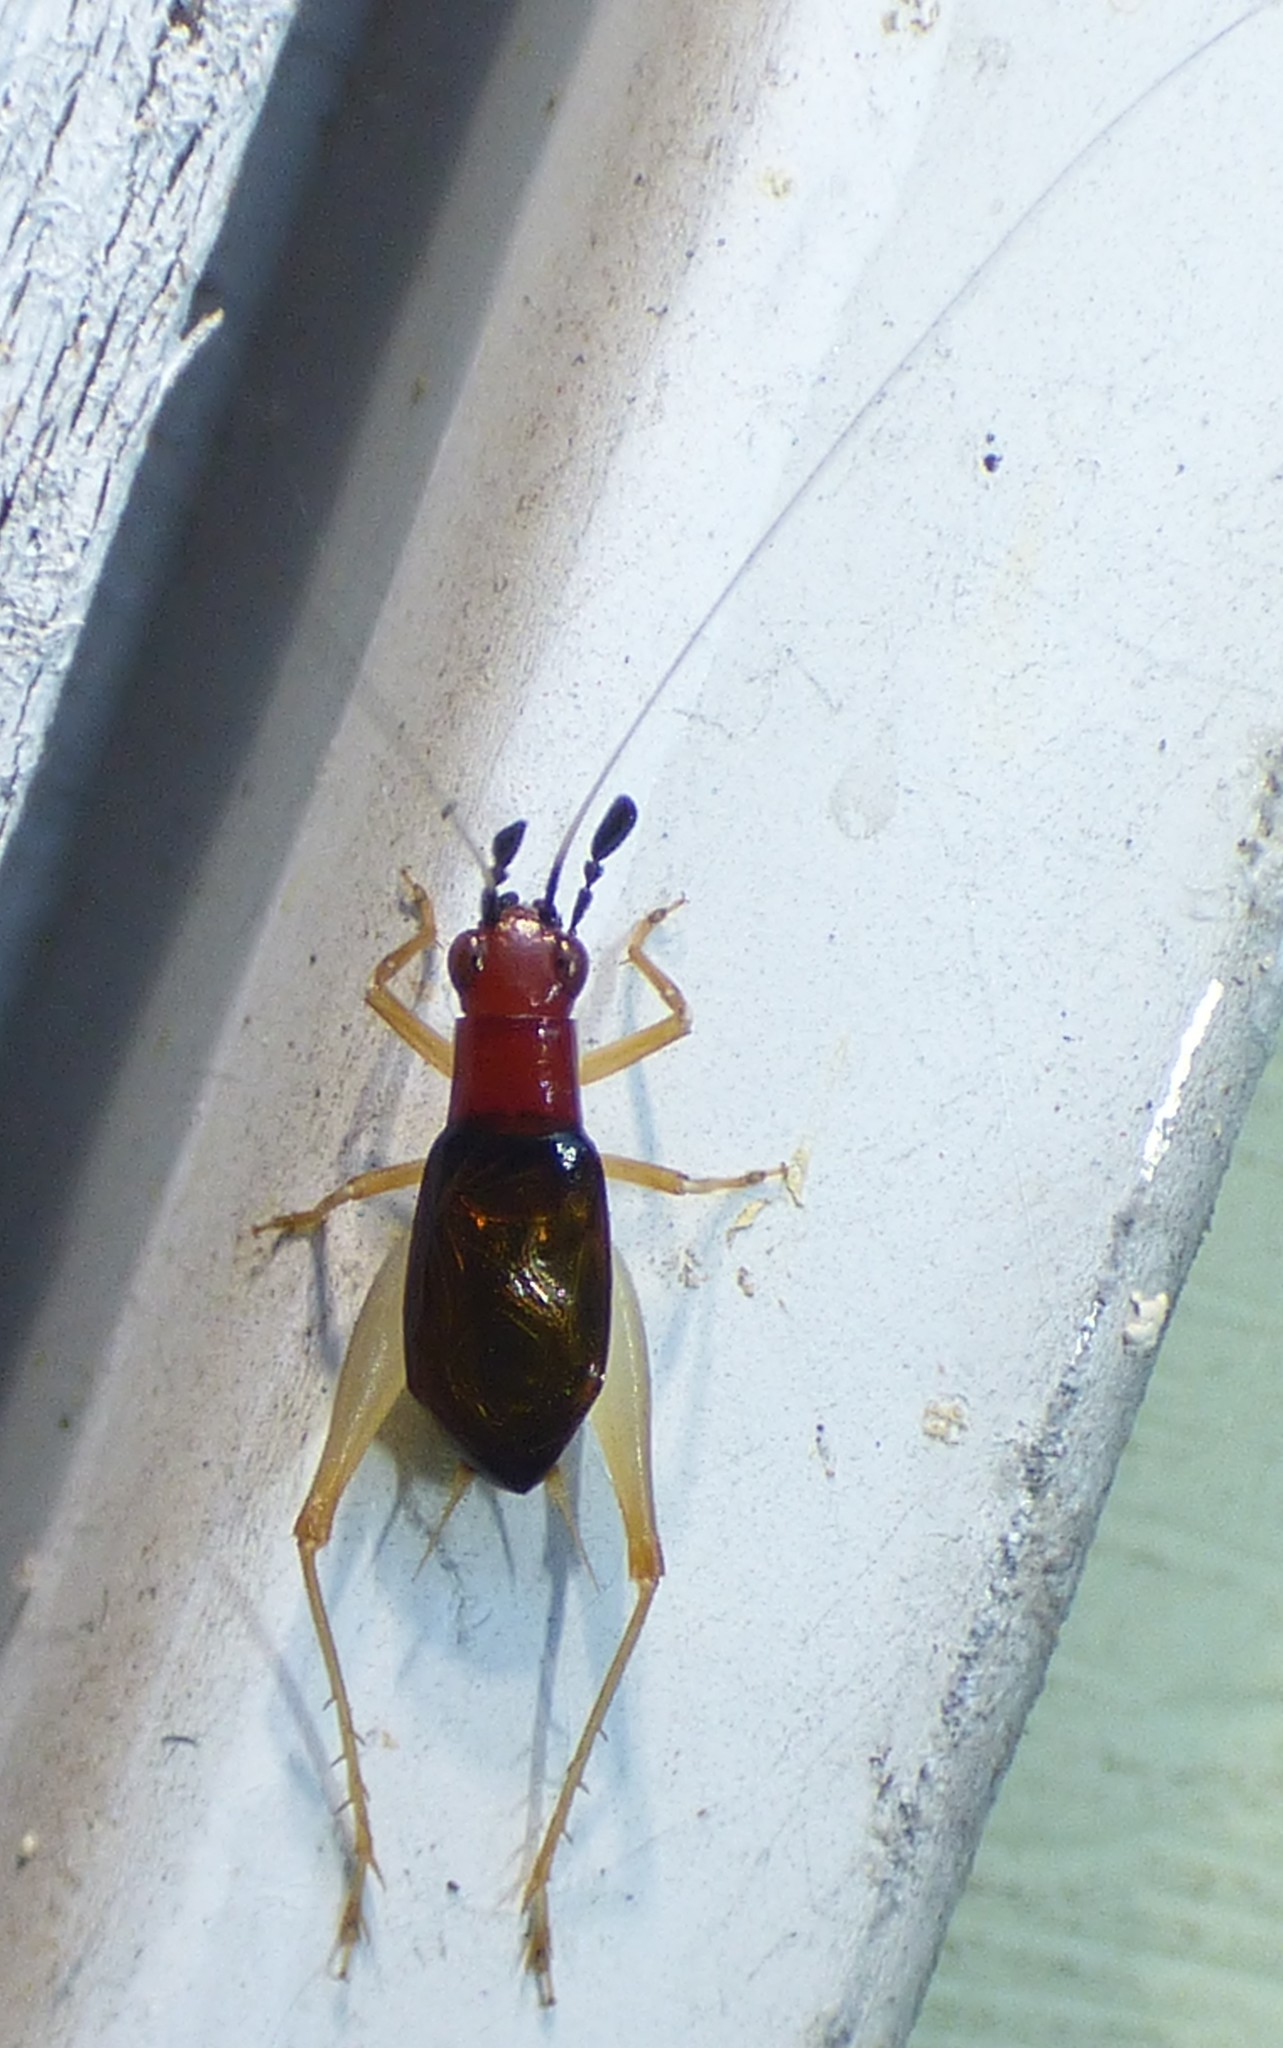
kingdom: Animalia
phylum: Arthropoda
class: Insecta
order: Orthoptera
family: Trigonidiidae
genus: Phyllopalpus
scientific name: Phyllopalpus pulchellus
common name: Handsome trig
